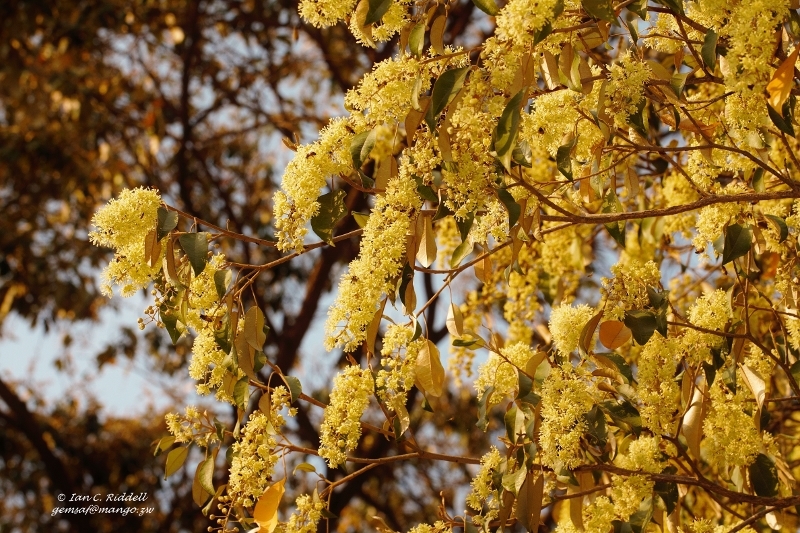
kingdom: Plantae
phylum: Tracheophyta
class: Magnoliopsida
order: Malpighiales
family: Euphorbiaceae
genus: Croton
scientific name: Croton megalocarpus
